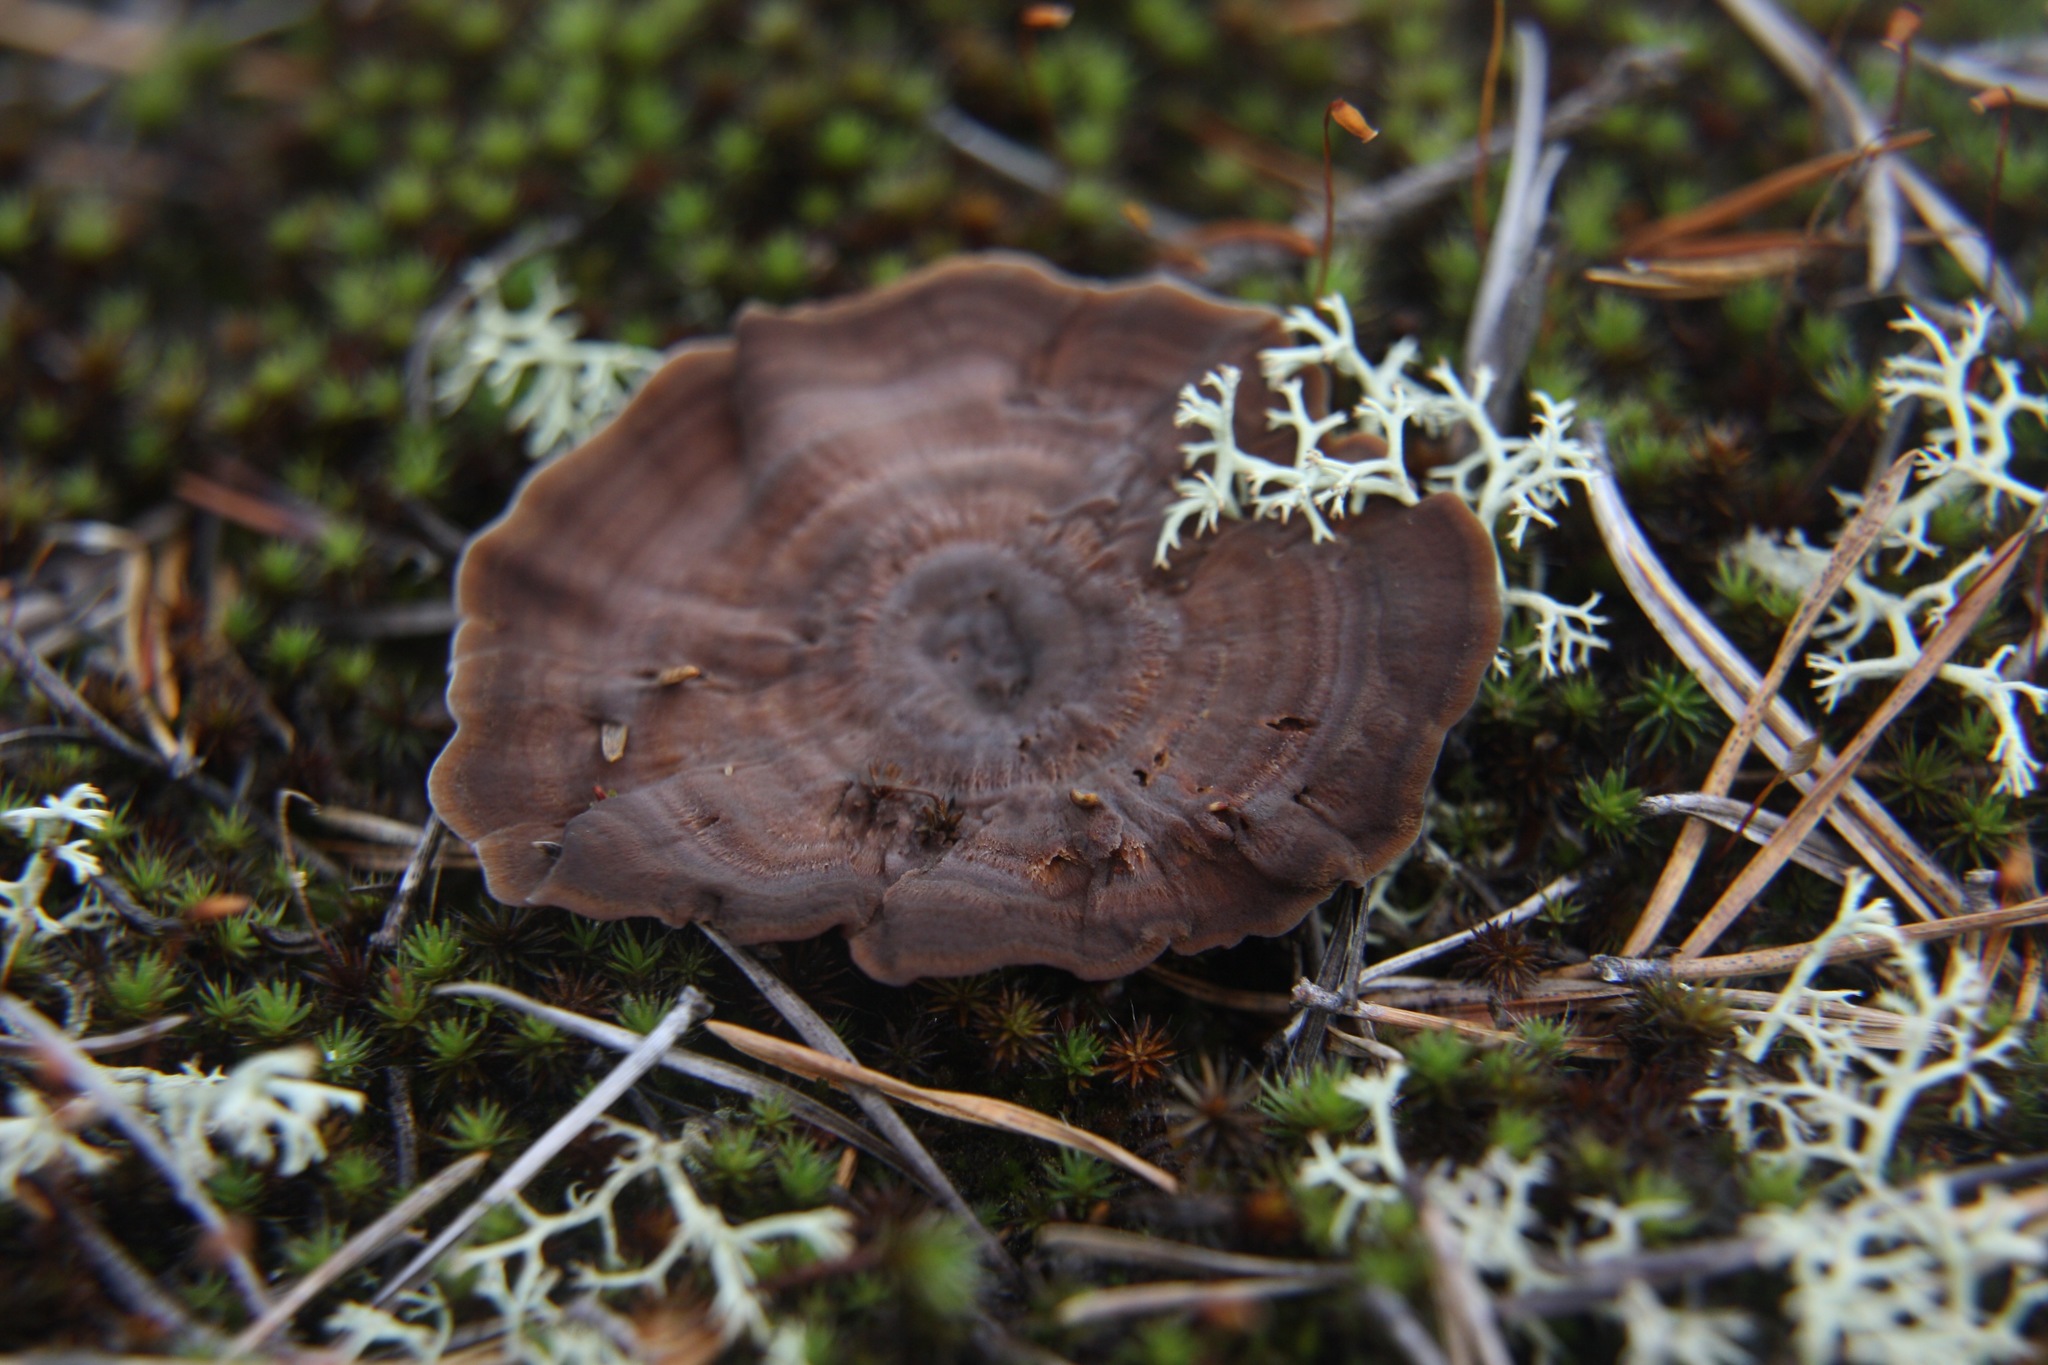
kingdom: Fungi
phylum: Basidiomycota
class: Agaricomycetes
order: Hymenochaetales
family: Hymenochaetaceae
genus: Coltricia
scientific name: Coltricia perennis
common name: Tiger's eye
